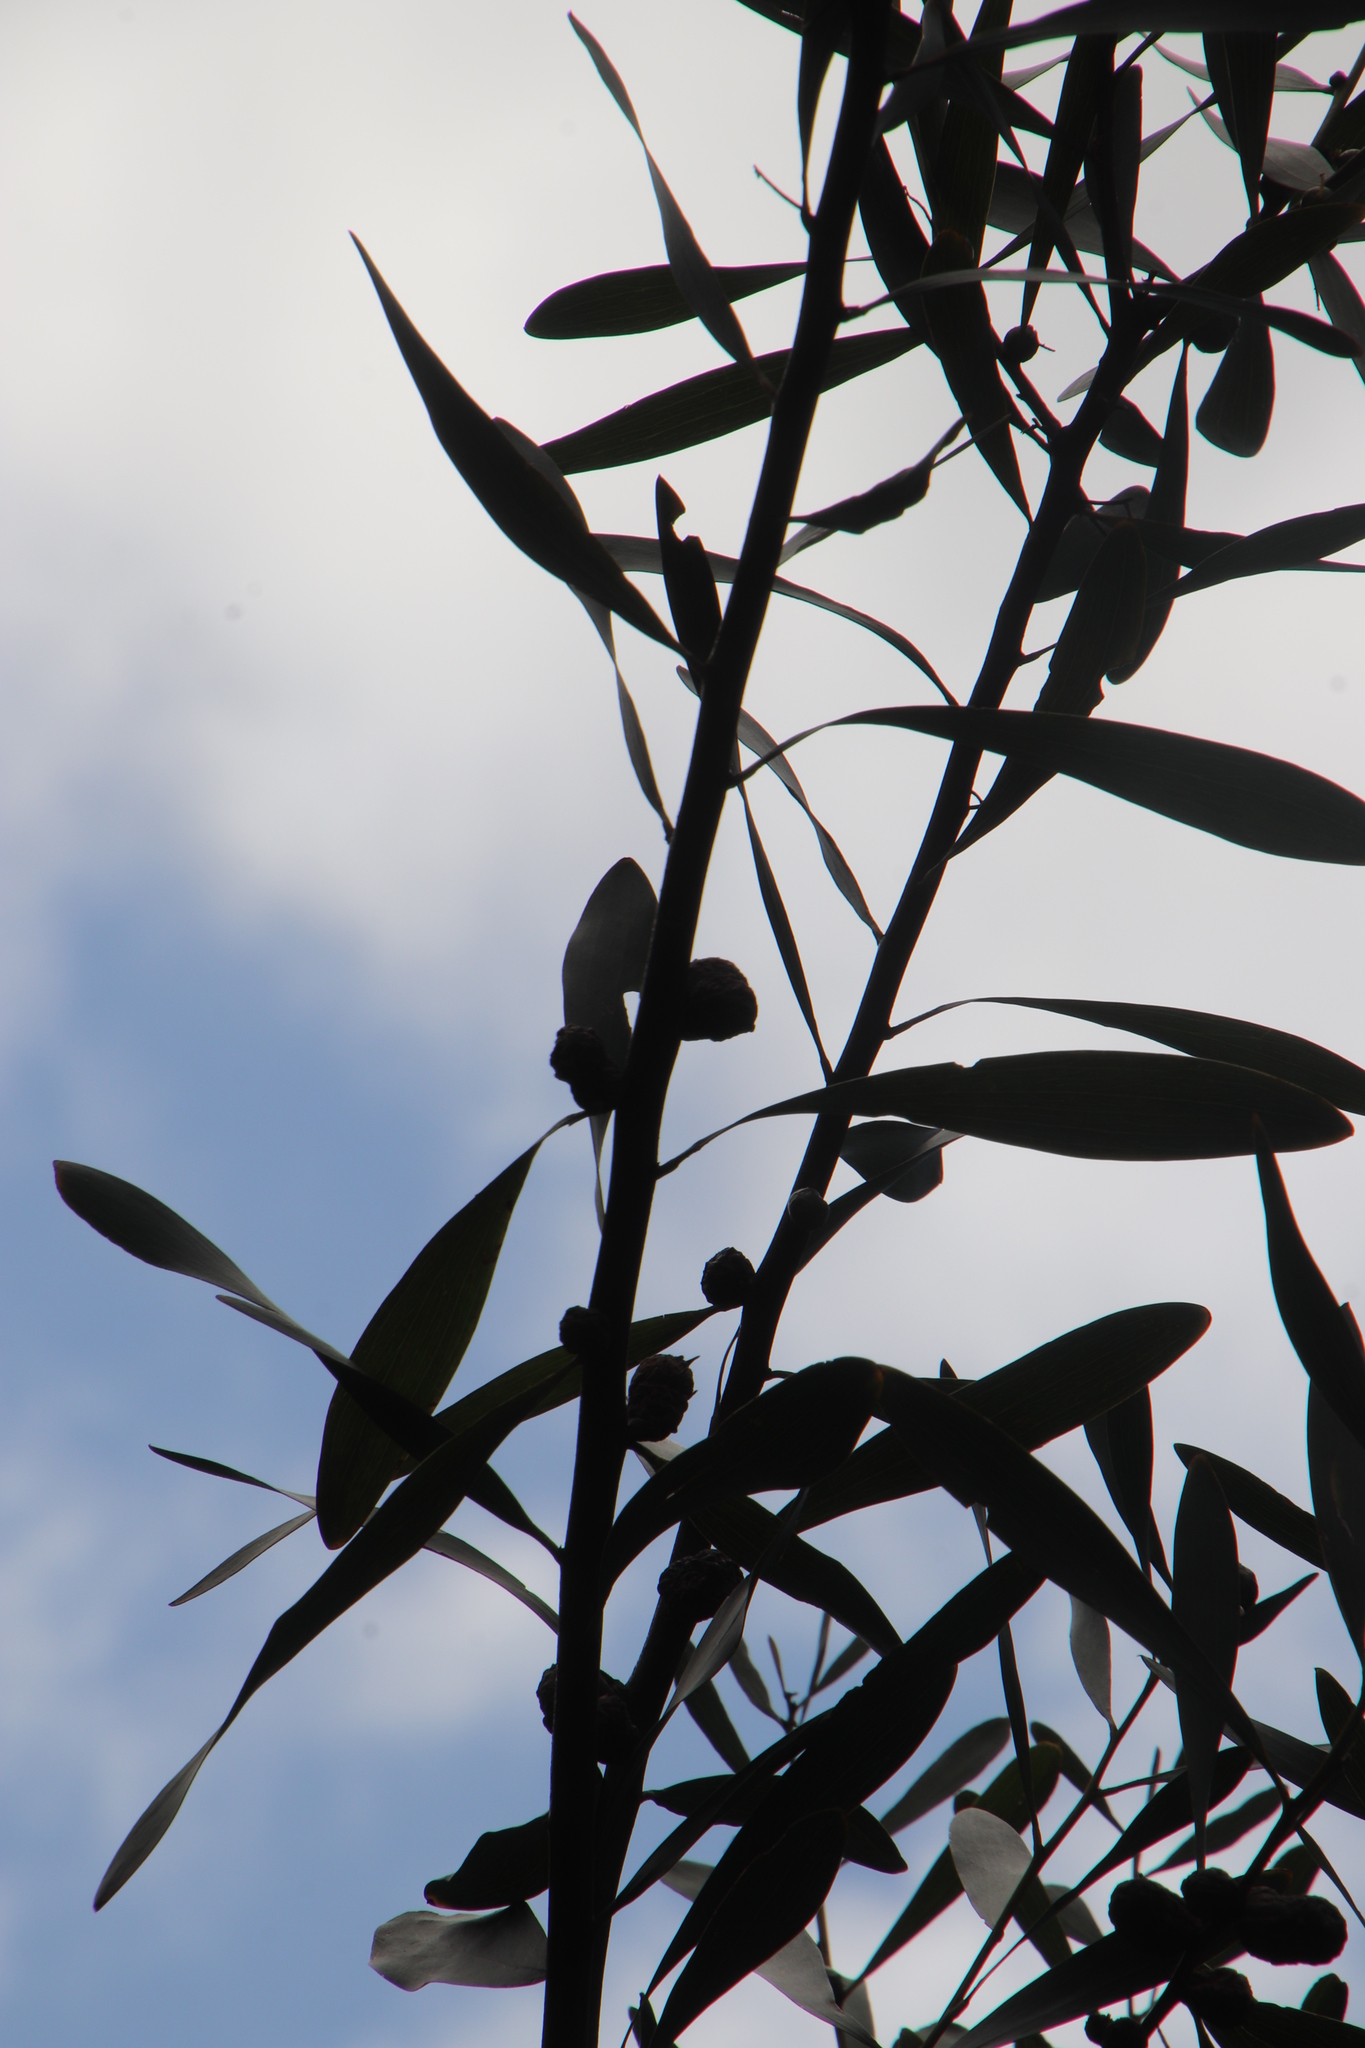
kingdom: Plantae
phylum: Tracheophyta
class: Magnoliopsida
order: Fabales
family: Fabaceae
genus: Acacia
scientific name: Acacia longifolia
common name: Sydney golden wattle
